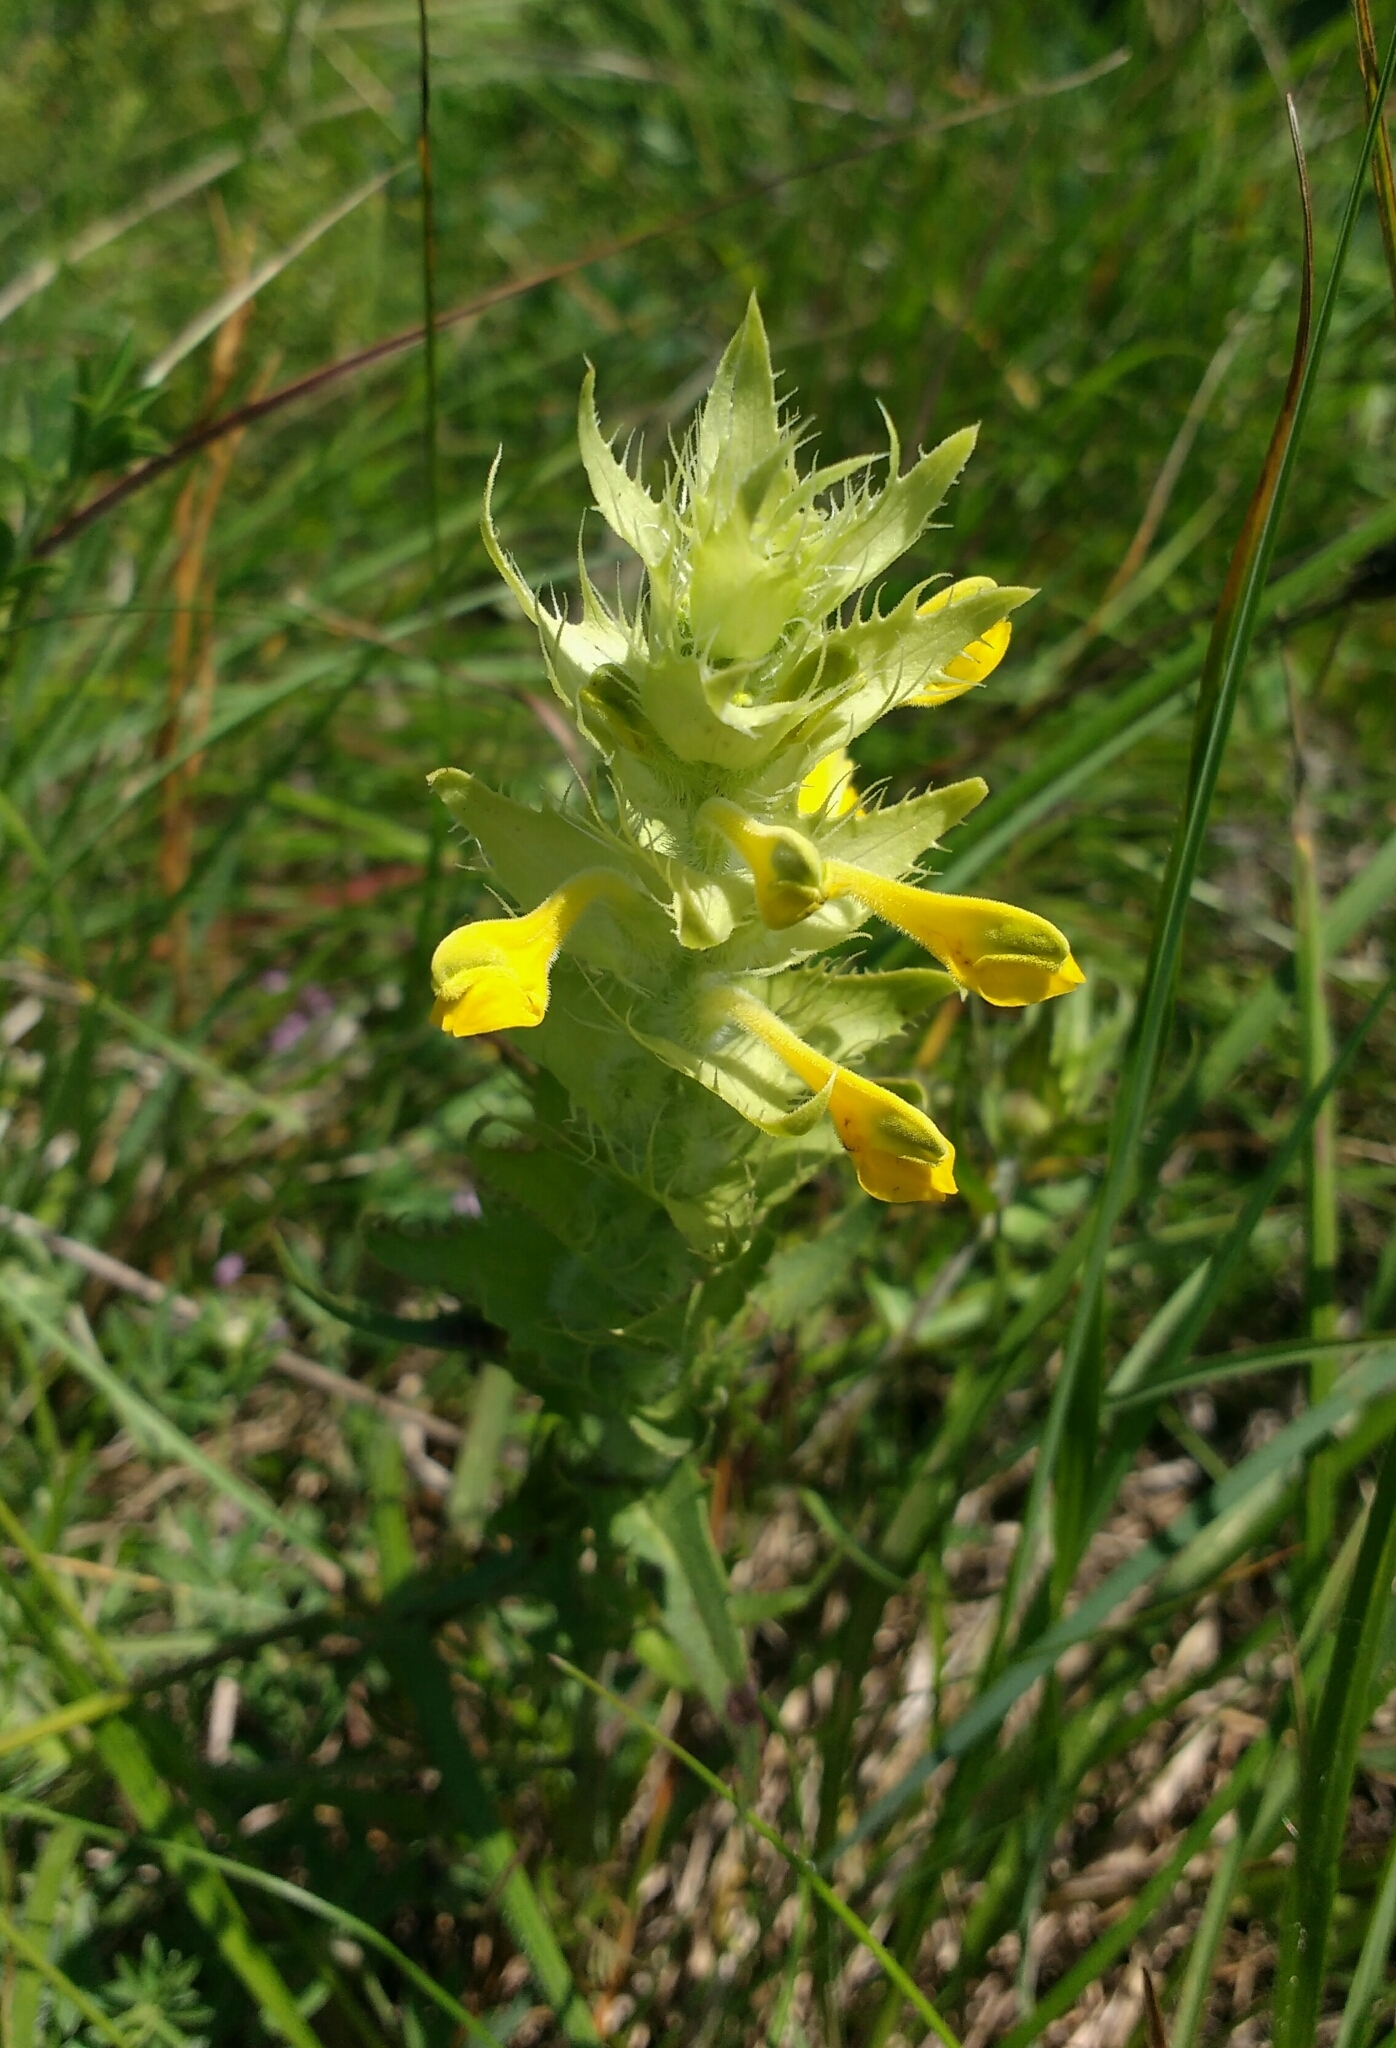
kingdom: Plantae
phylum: Tracheophyta
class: Magnoliopsida
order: Lamiales
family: Orobanchaceae
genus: Melampyrum
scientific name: Melampyrum barbatum
